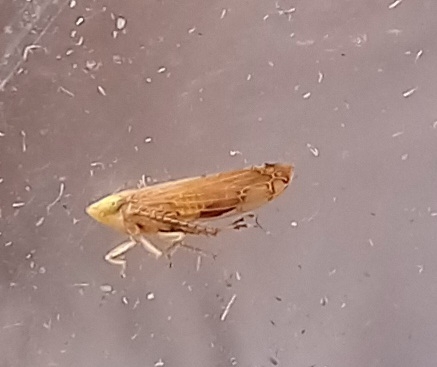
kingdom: Animalia
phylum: Arthropoda
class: Insecta
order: Hemiptera
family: Cicadellidae
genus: Synophropsis
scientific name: Synophropsis lauri
